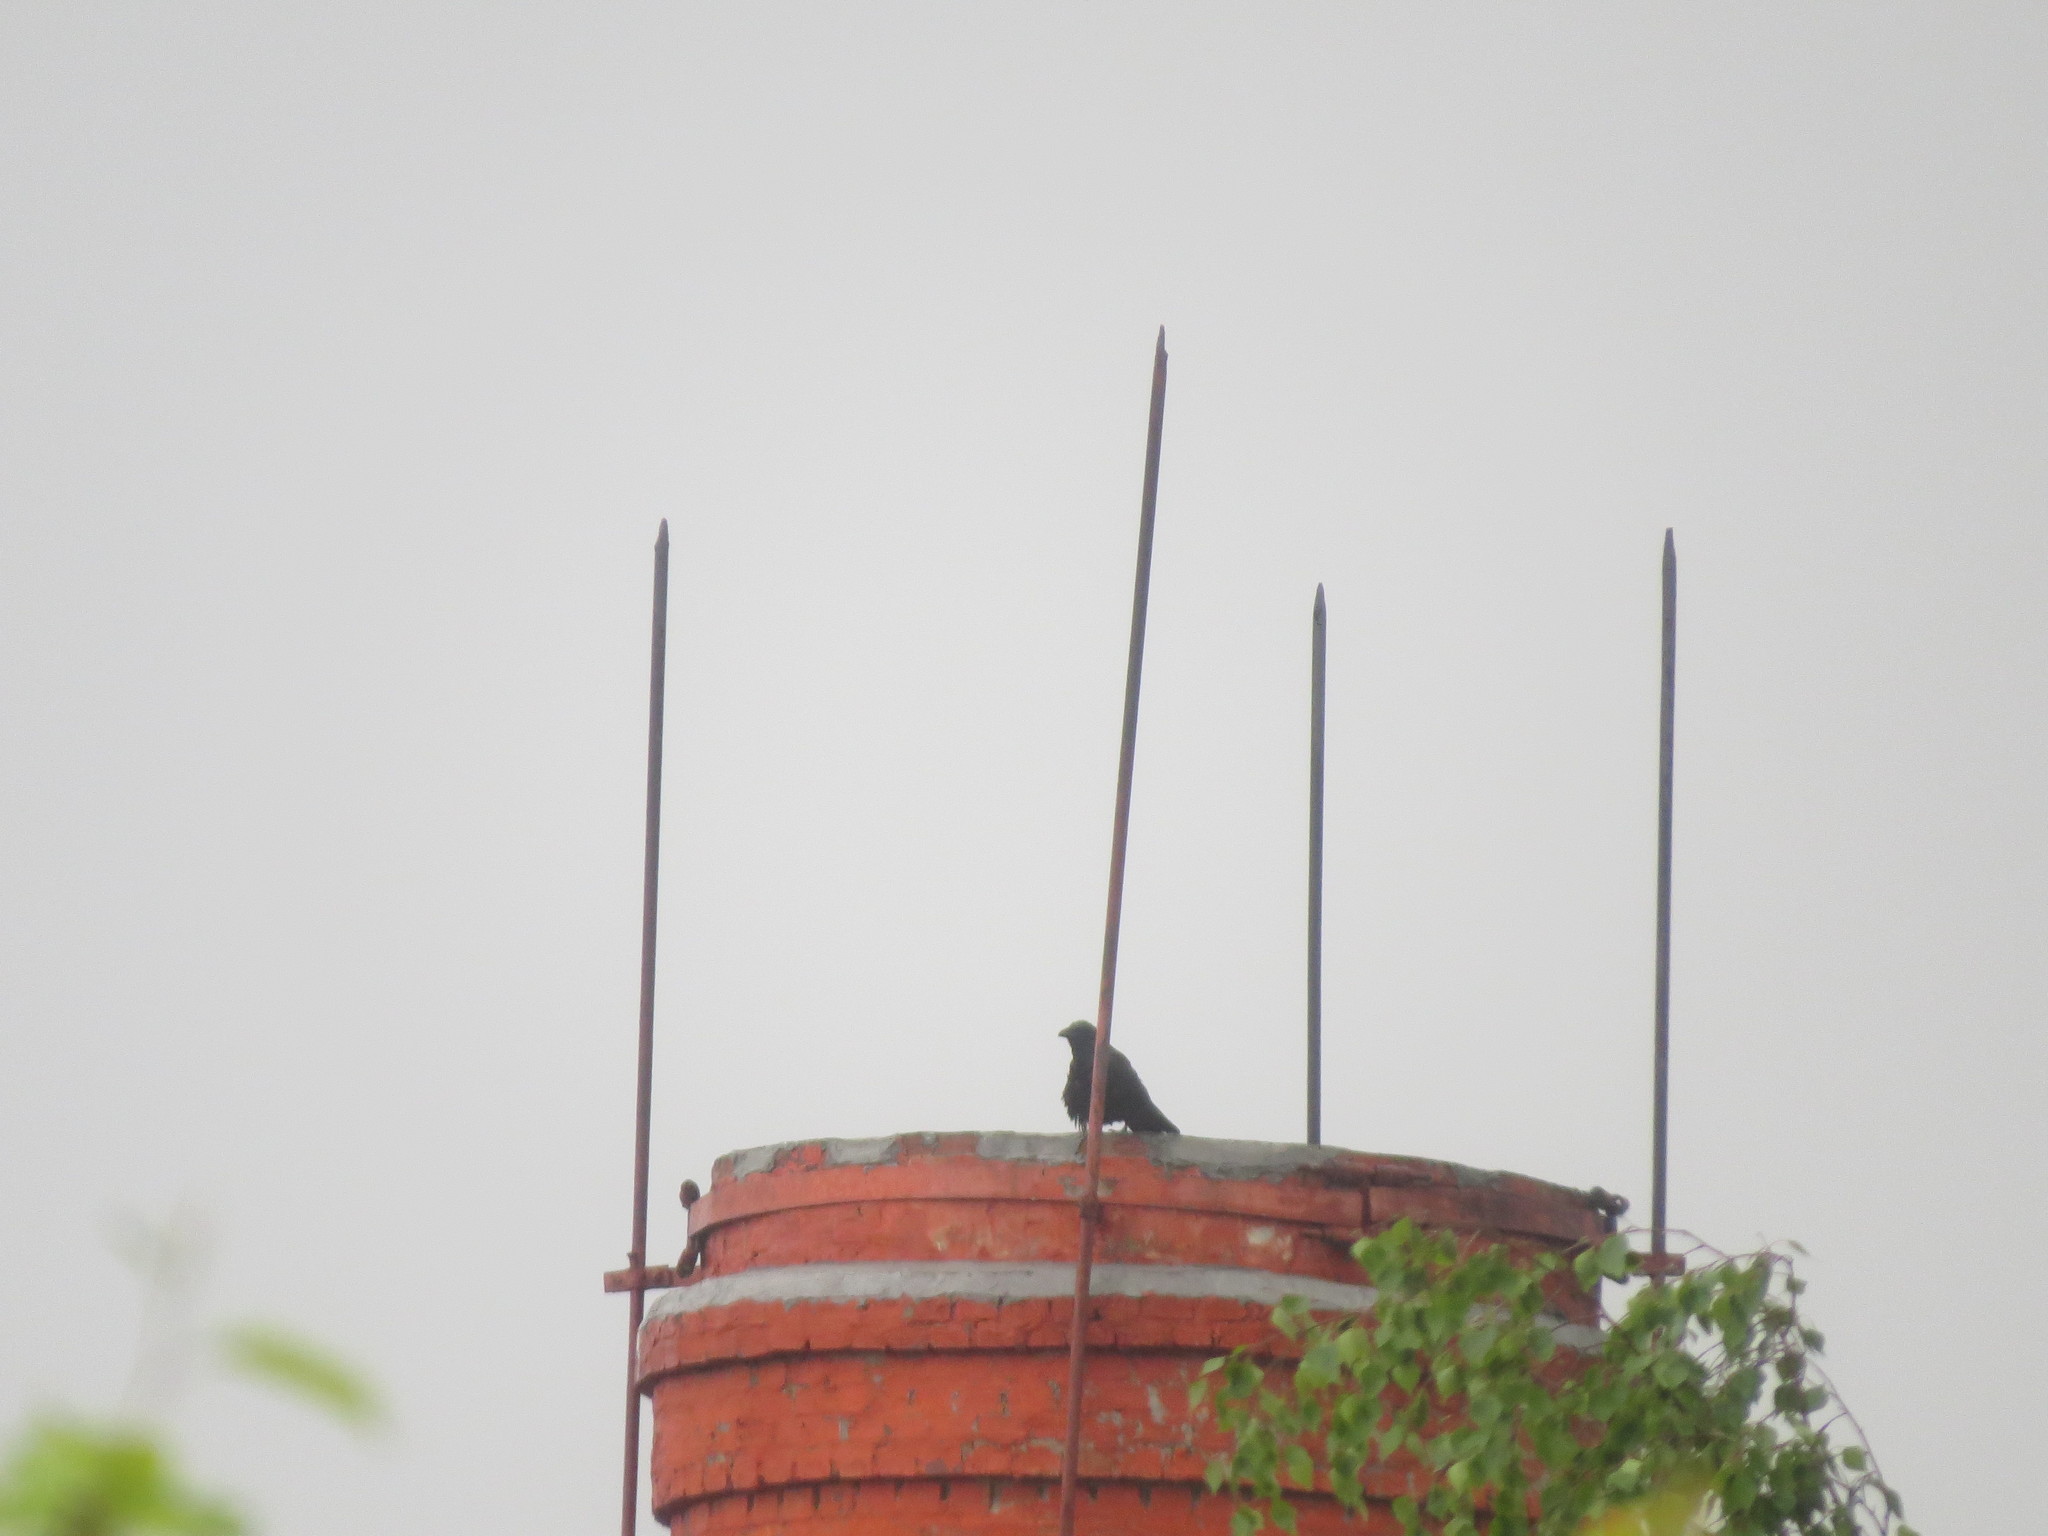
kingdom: Animalia
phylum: Chordata
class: Aves
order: Passeriformes
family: Corvidae
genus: Corvus
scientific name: Corvus corax
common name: Common raven
